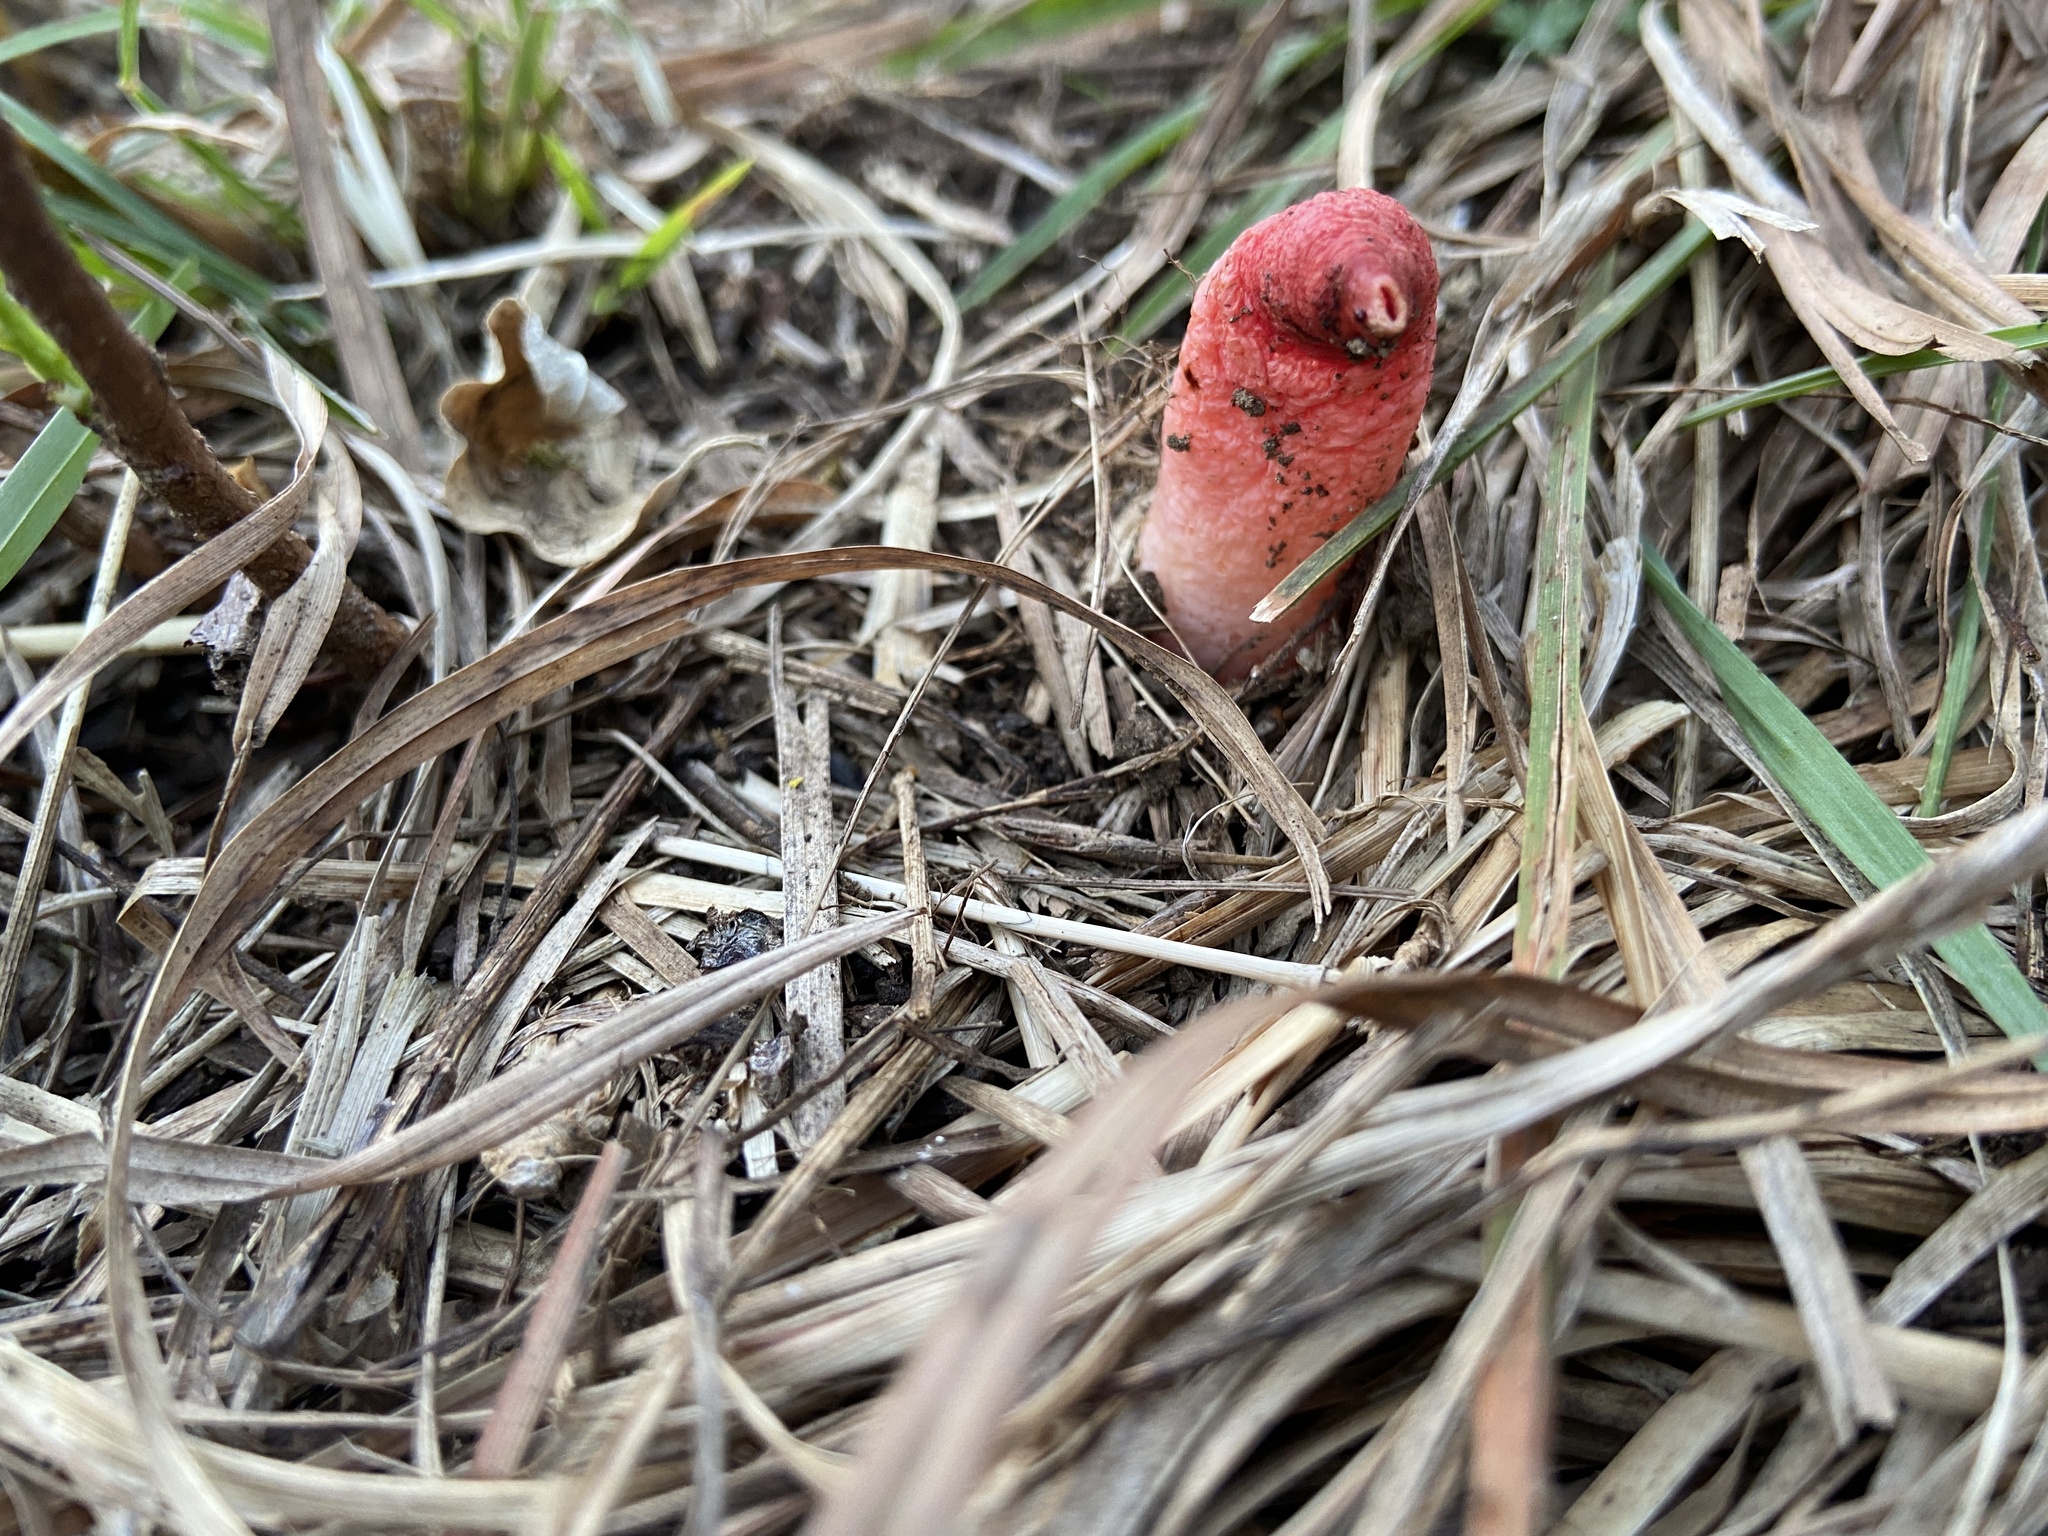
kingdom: Fungi
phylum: Basidiomycota
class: Agaricomycetes
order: Phallales
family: Phallaceae
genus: Mutinus
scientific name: Mutinus elegans
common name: Devil's dipstick
